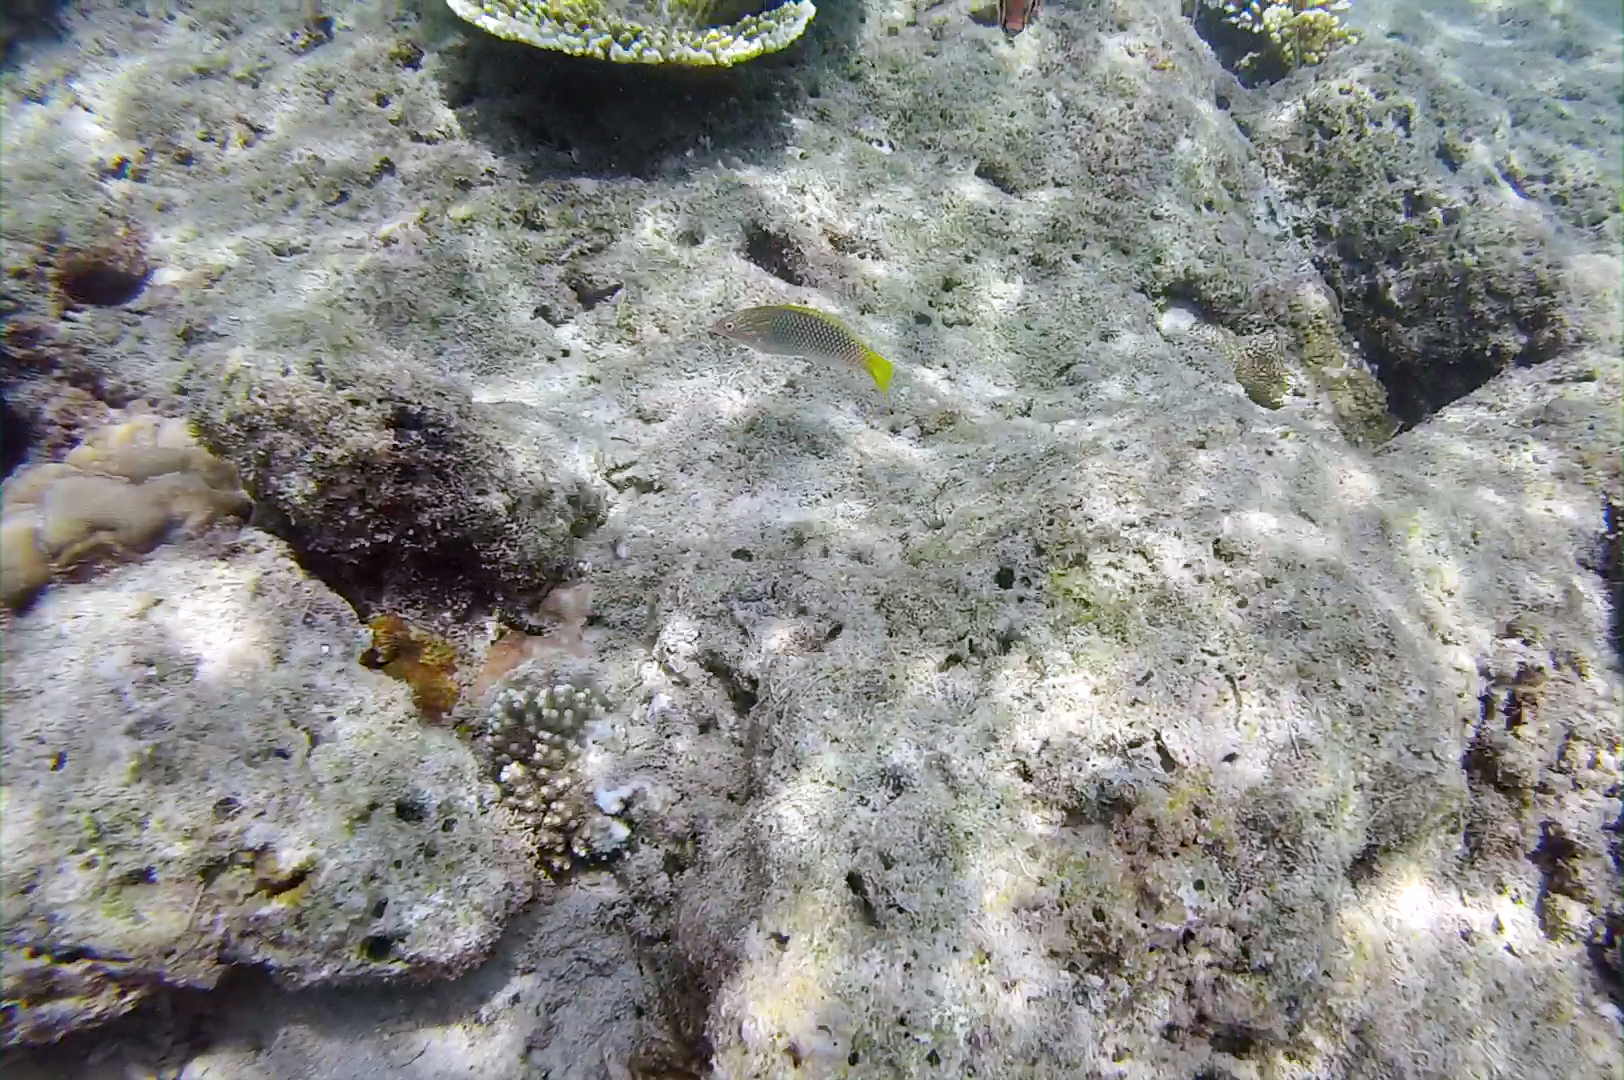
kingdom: Animalia
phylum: Chordata
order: Perciformes
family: Labridae
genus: Halichoeres
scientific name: Halichoeres hortulanus
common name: Checkerboard wrasse
